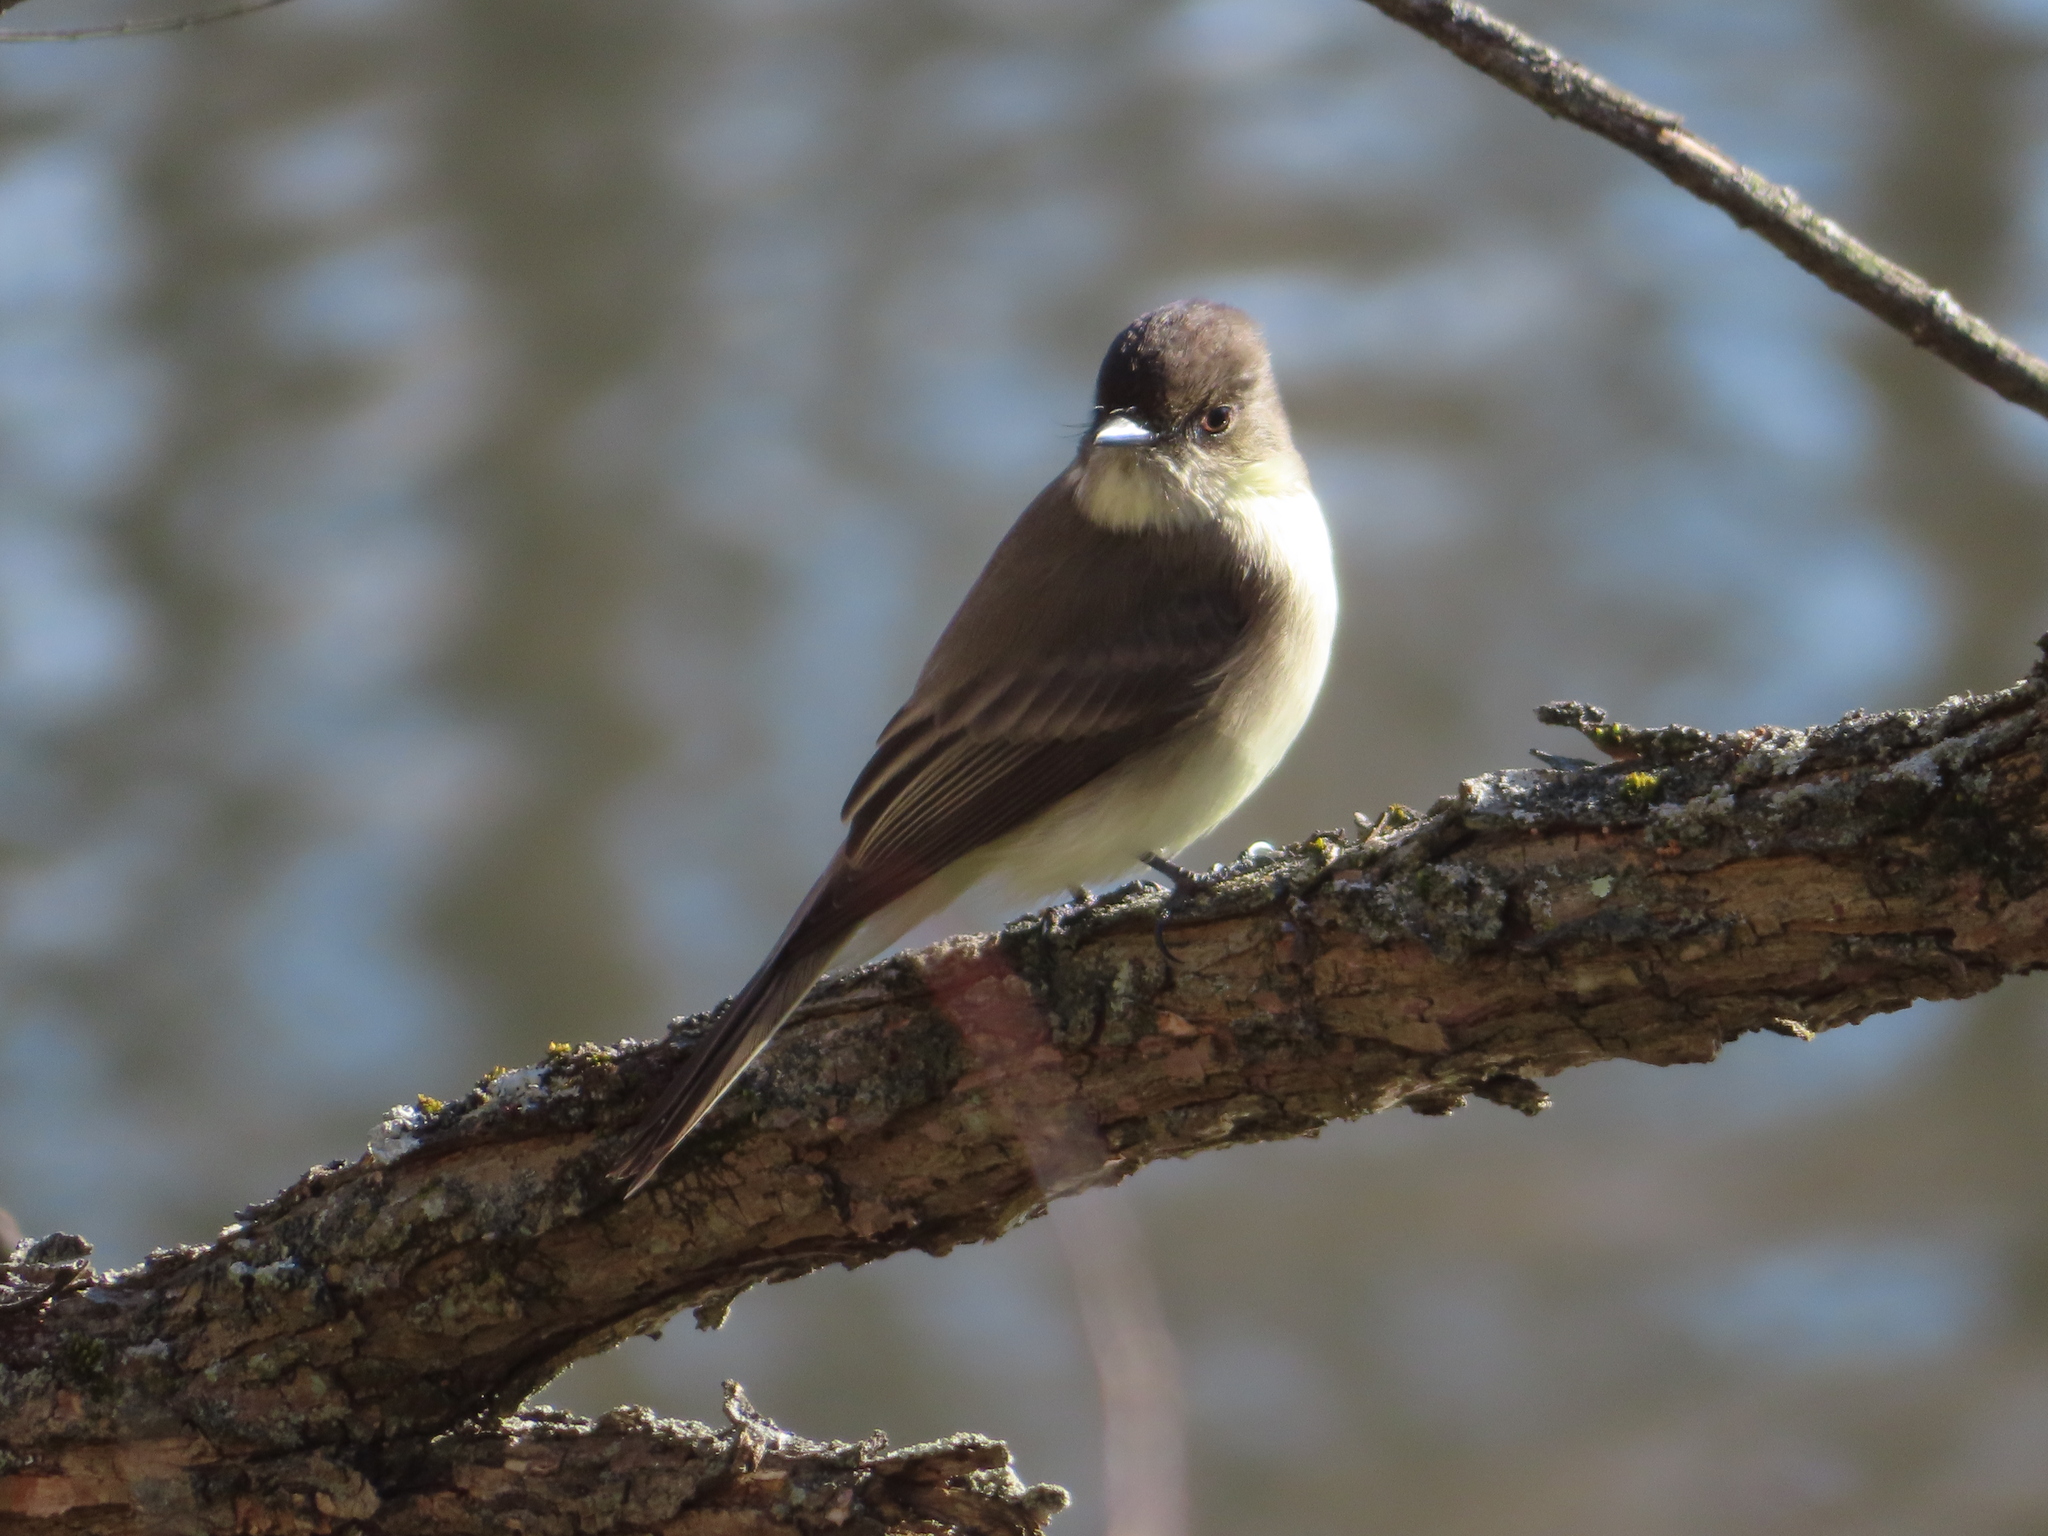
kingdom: Animalia
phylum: Chordata
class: Aves
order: Passeriformes
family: Tyrannidae
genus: Sayornis
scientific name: Sayornis phoebe
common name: Eastern phoebe
